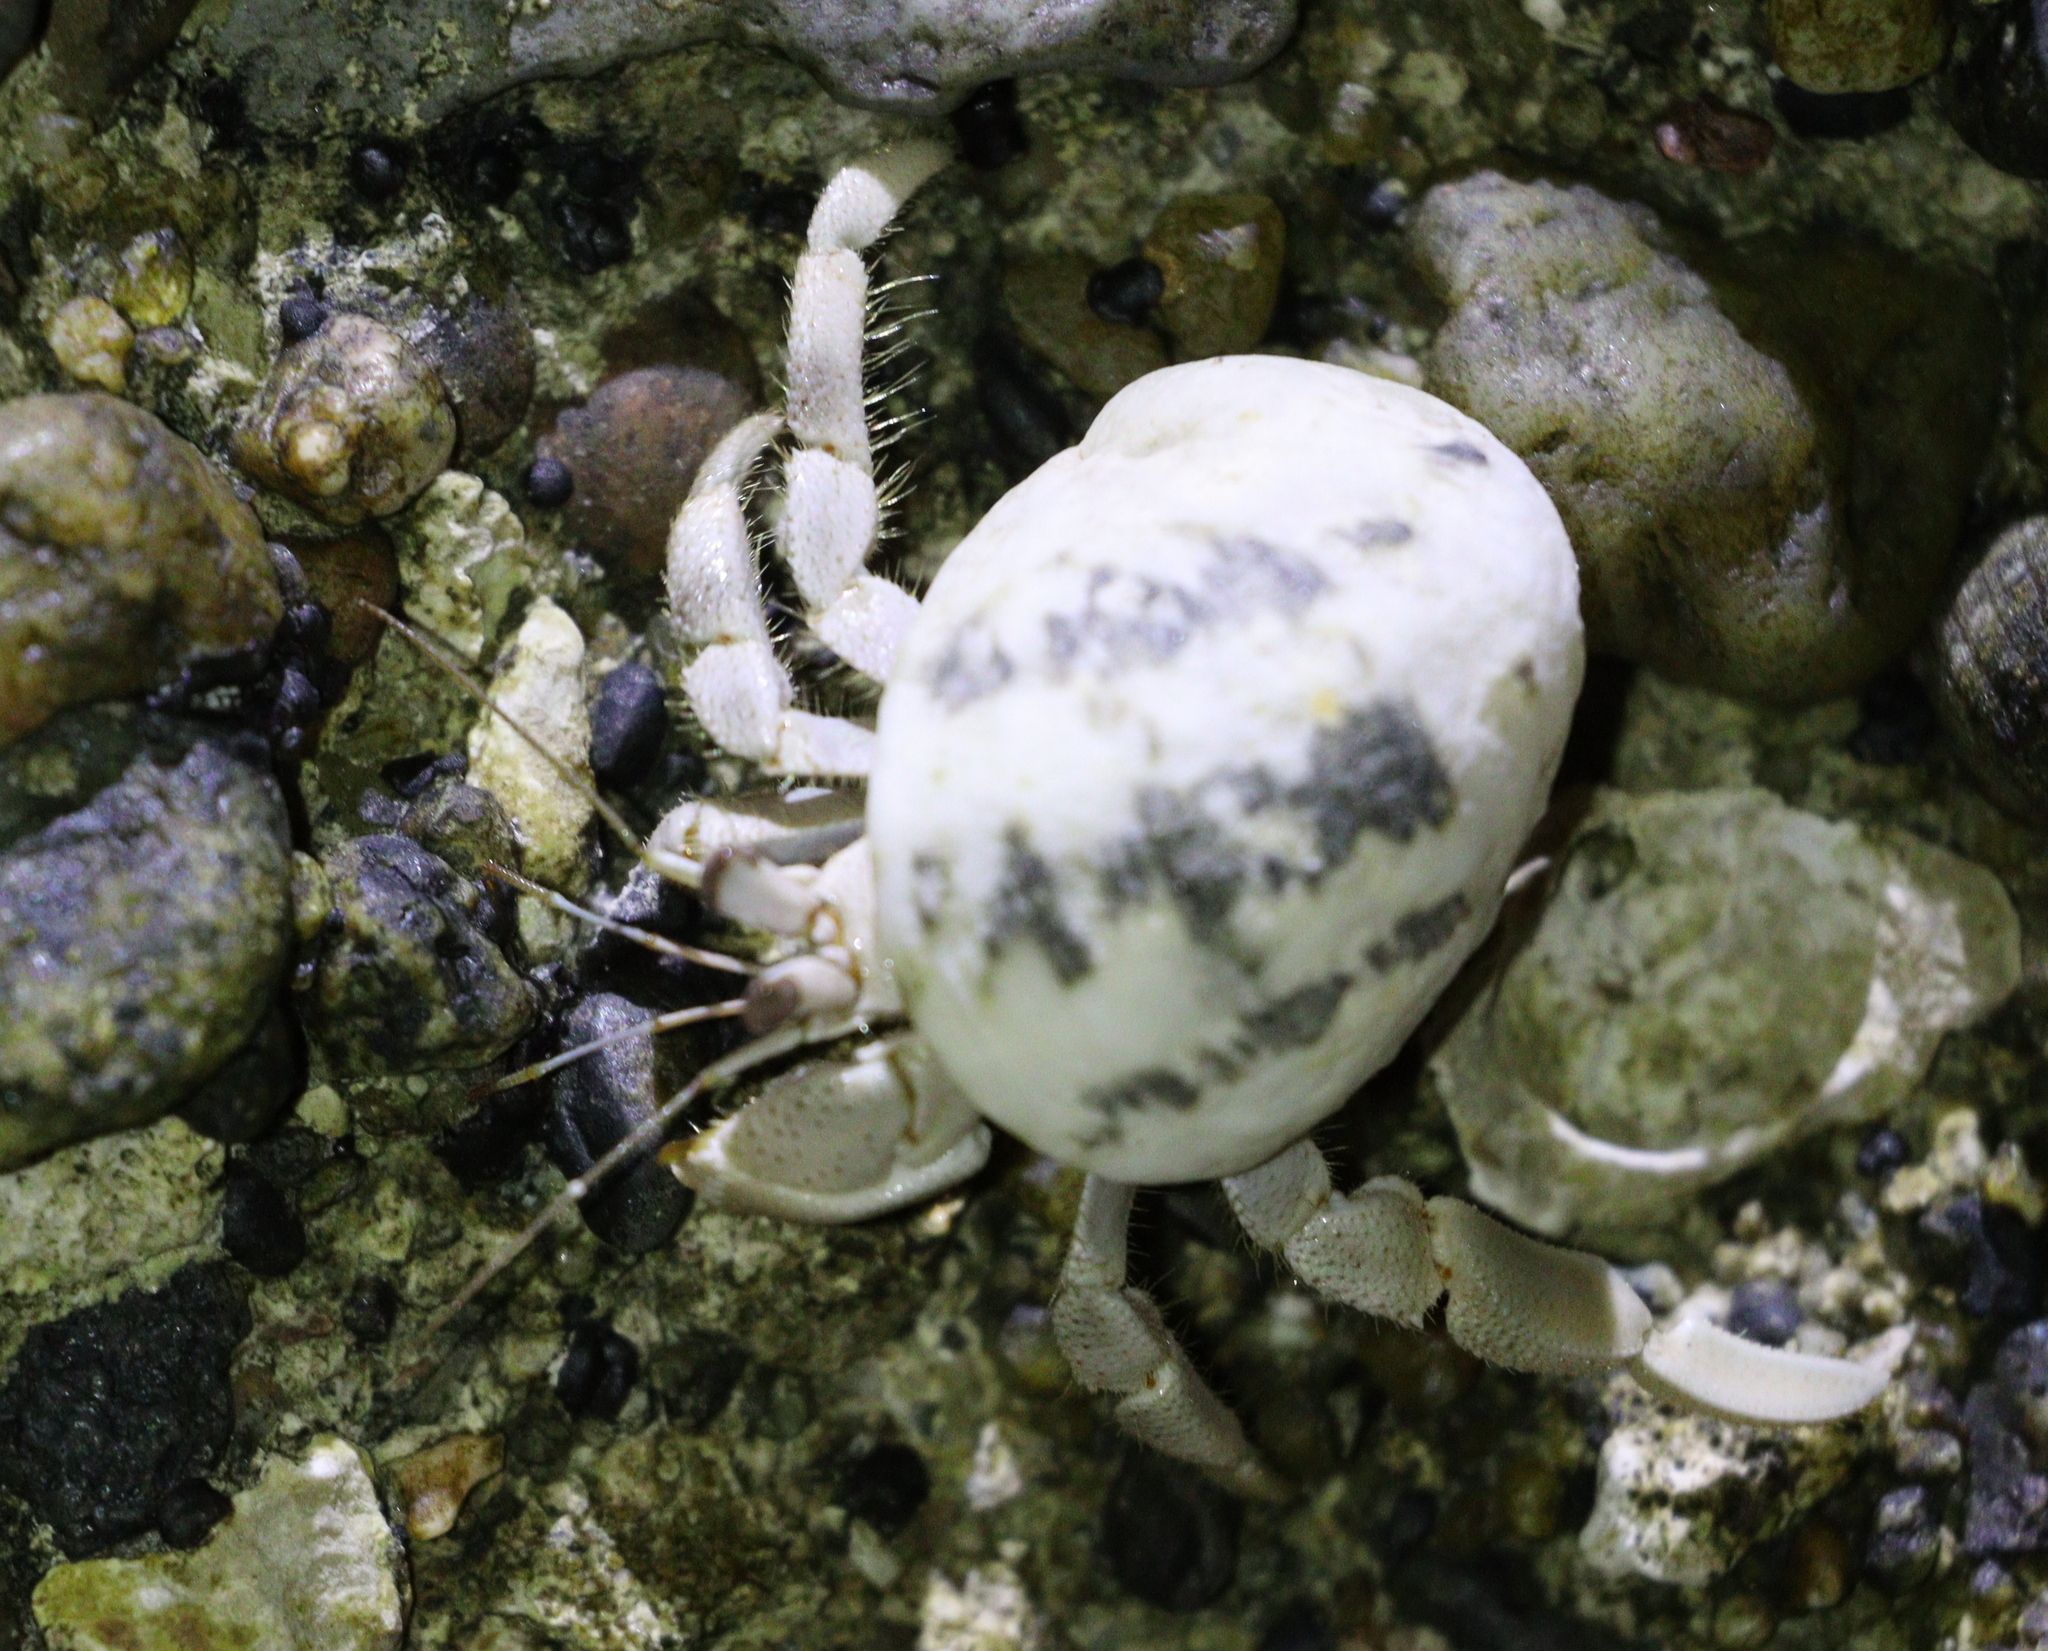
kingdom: Animalia
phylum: Arthropoda
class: Malacostraca
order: Decapoda
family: Coenobitidae
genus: Coenobita
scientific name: Coenobita scaevola
